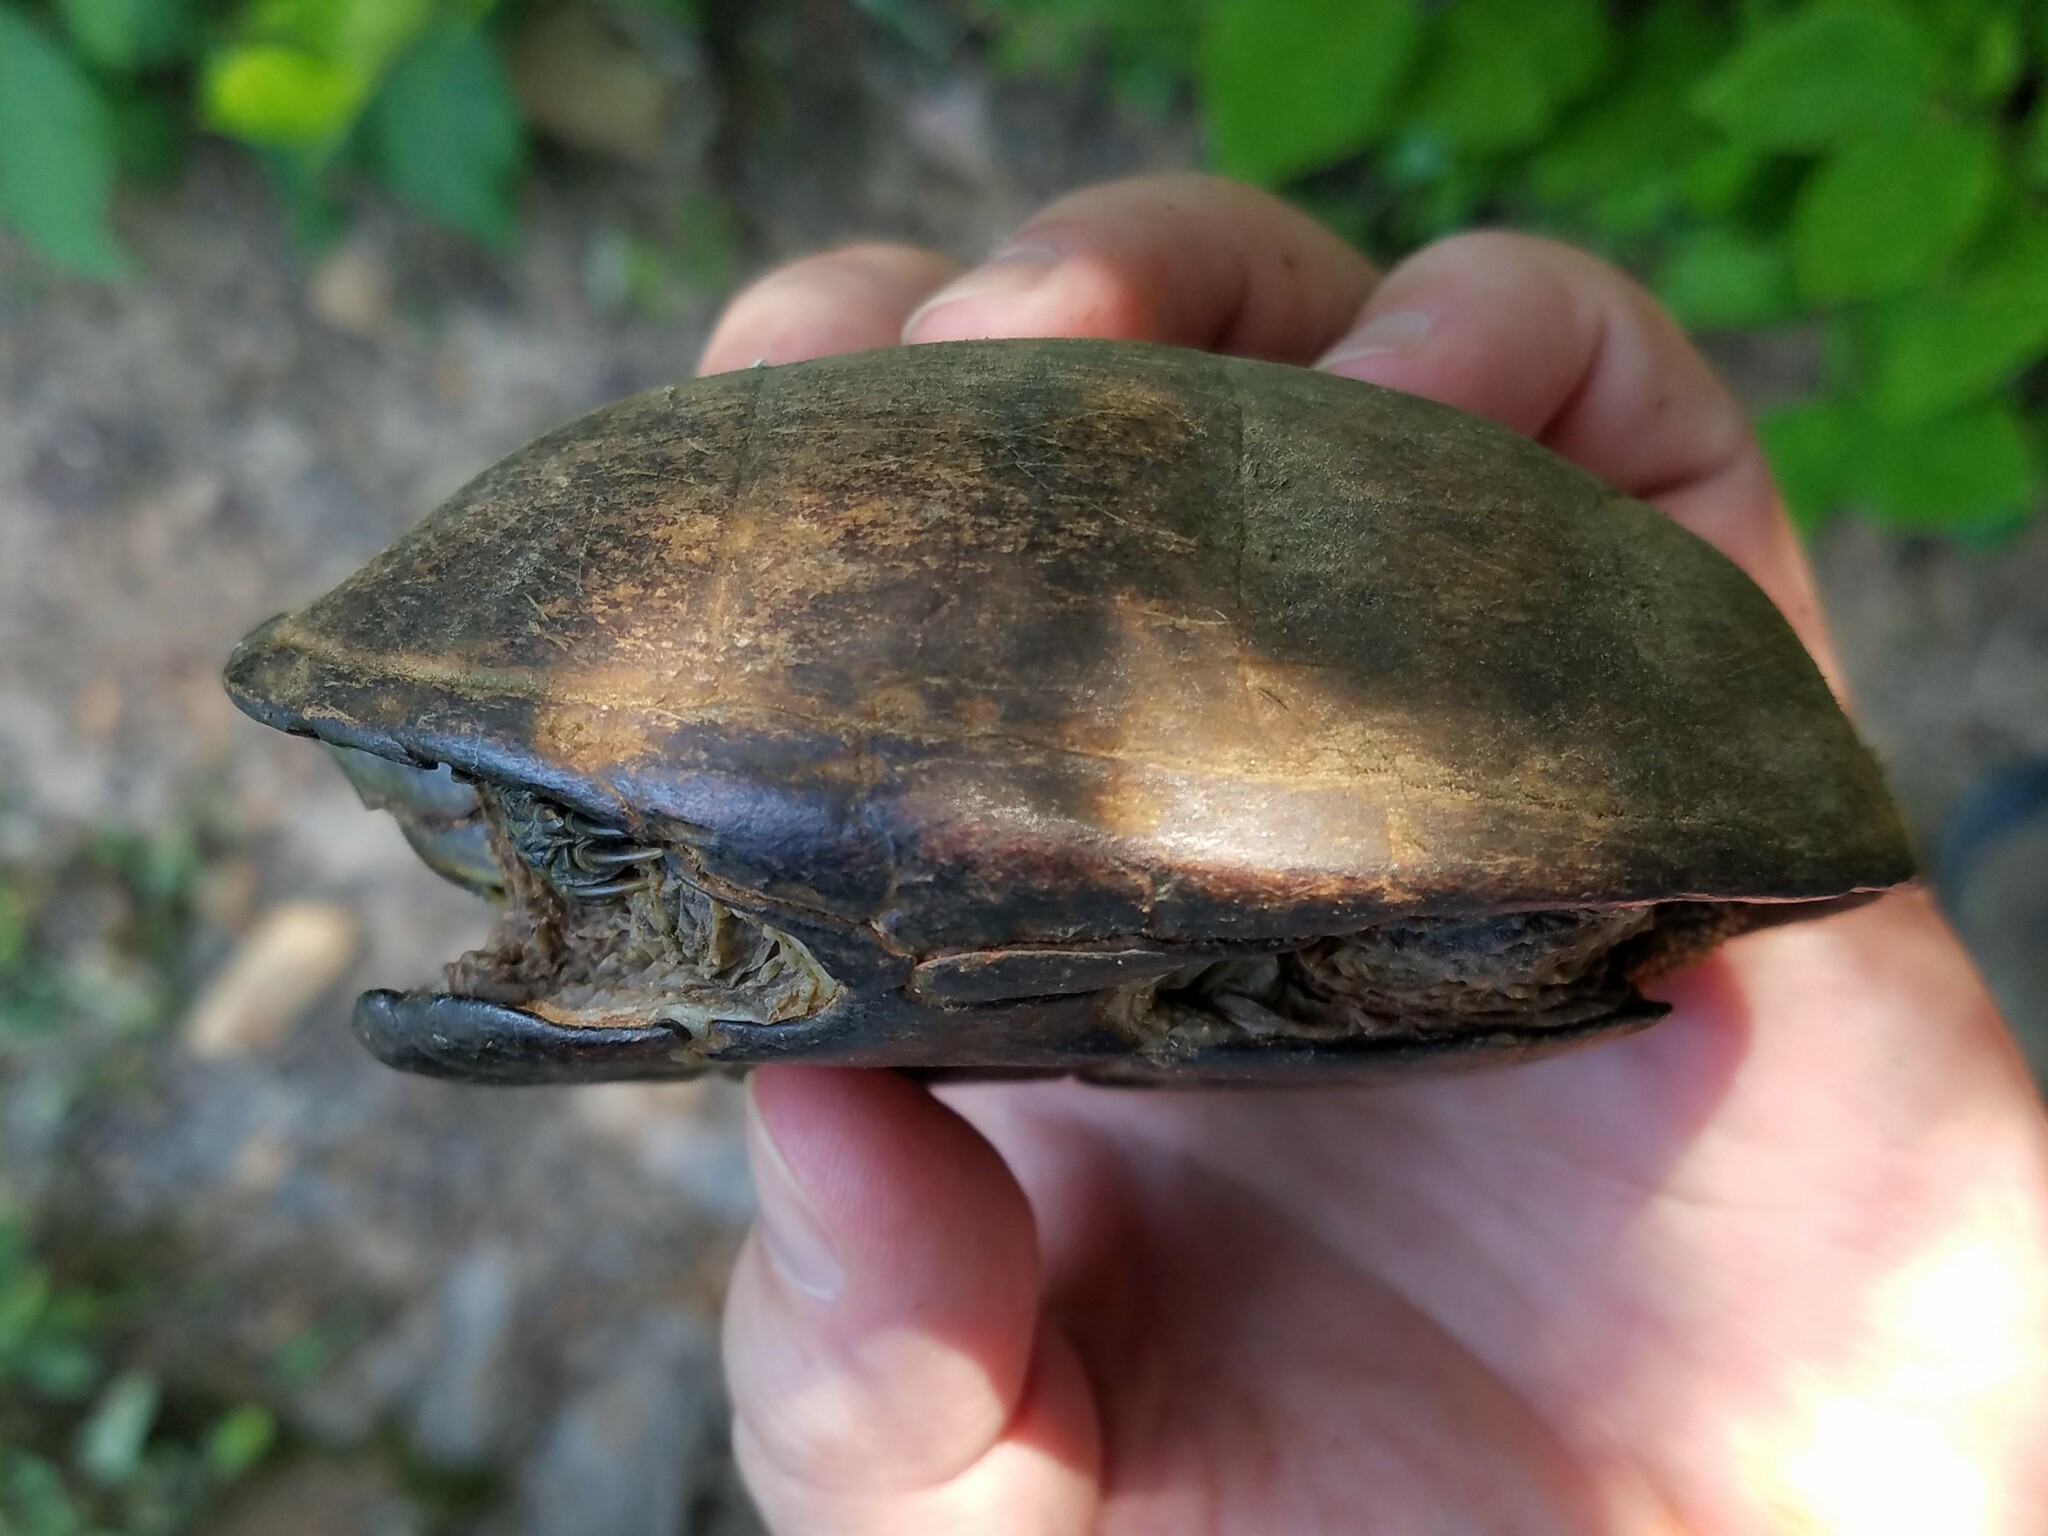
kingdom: Animalia
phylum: Chordata
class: Testudines
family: Kinosternidae
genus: Sternotherus
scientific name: Sternotherus odoratus
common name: Common musk turtle
